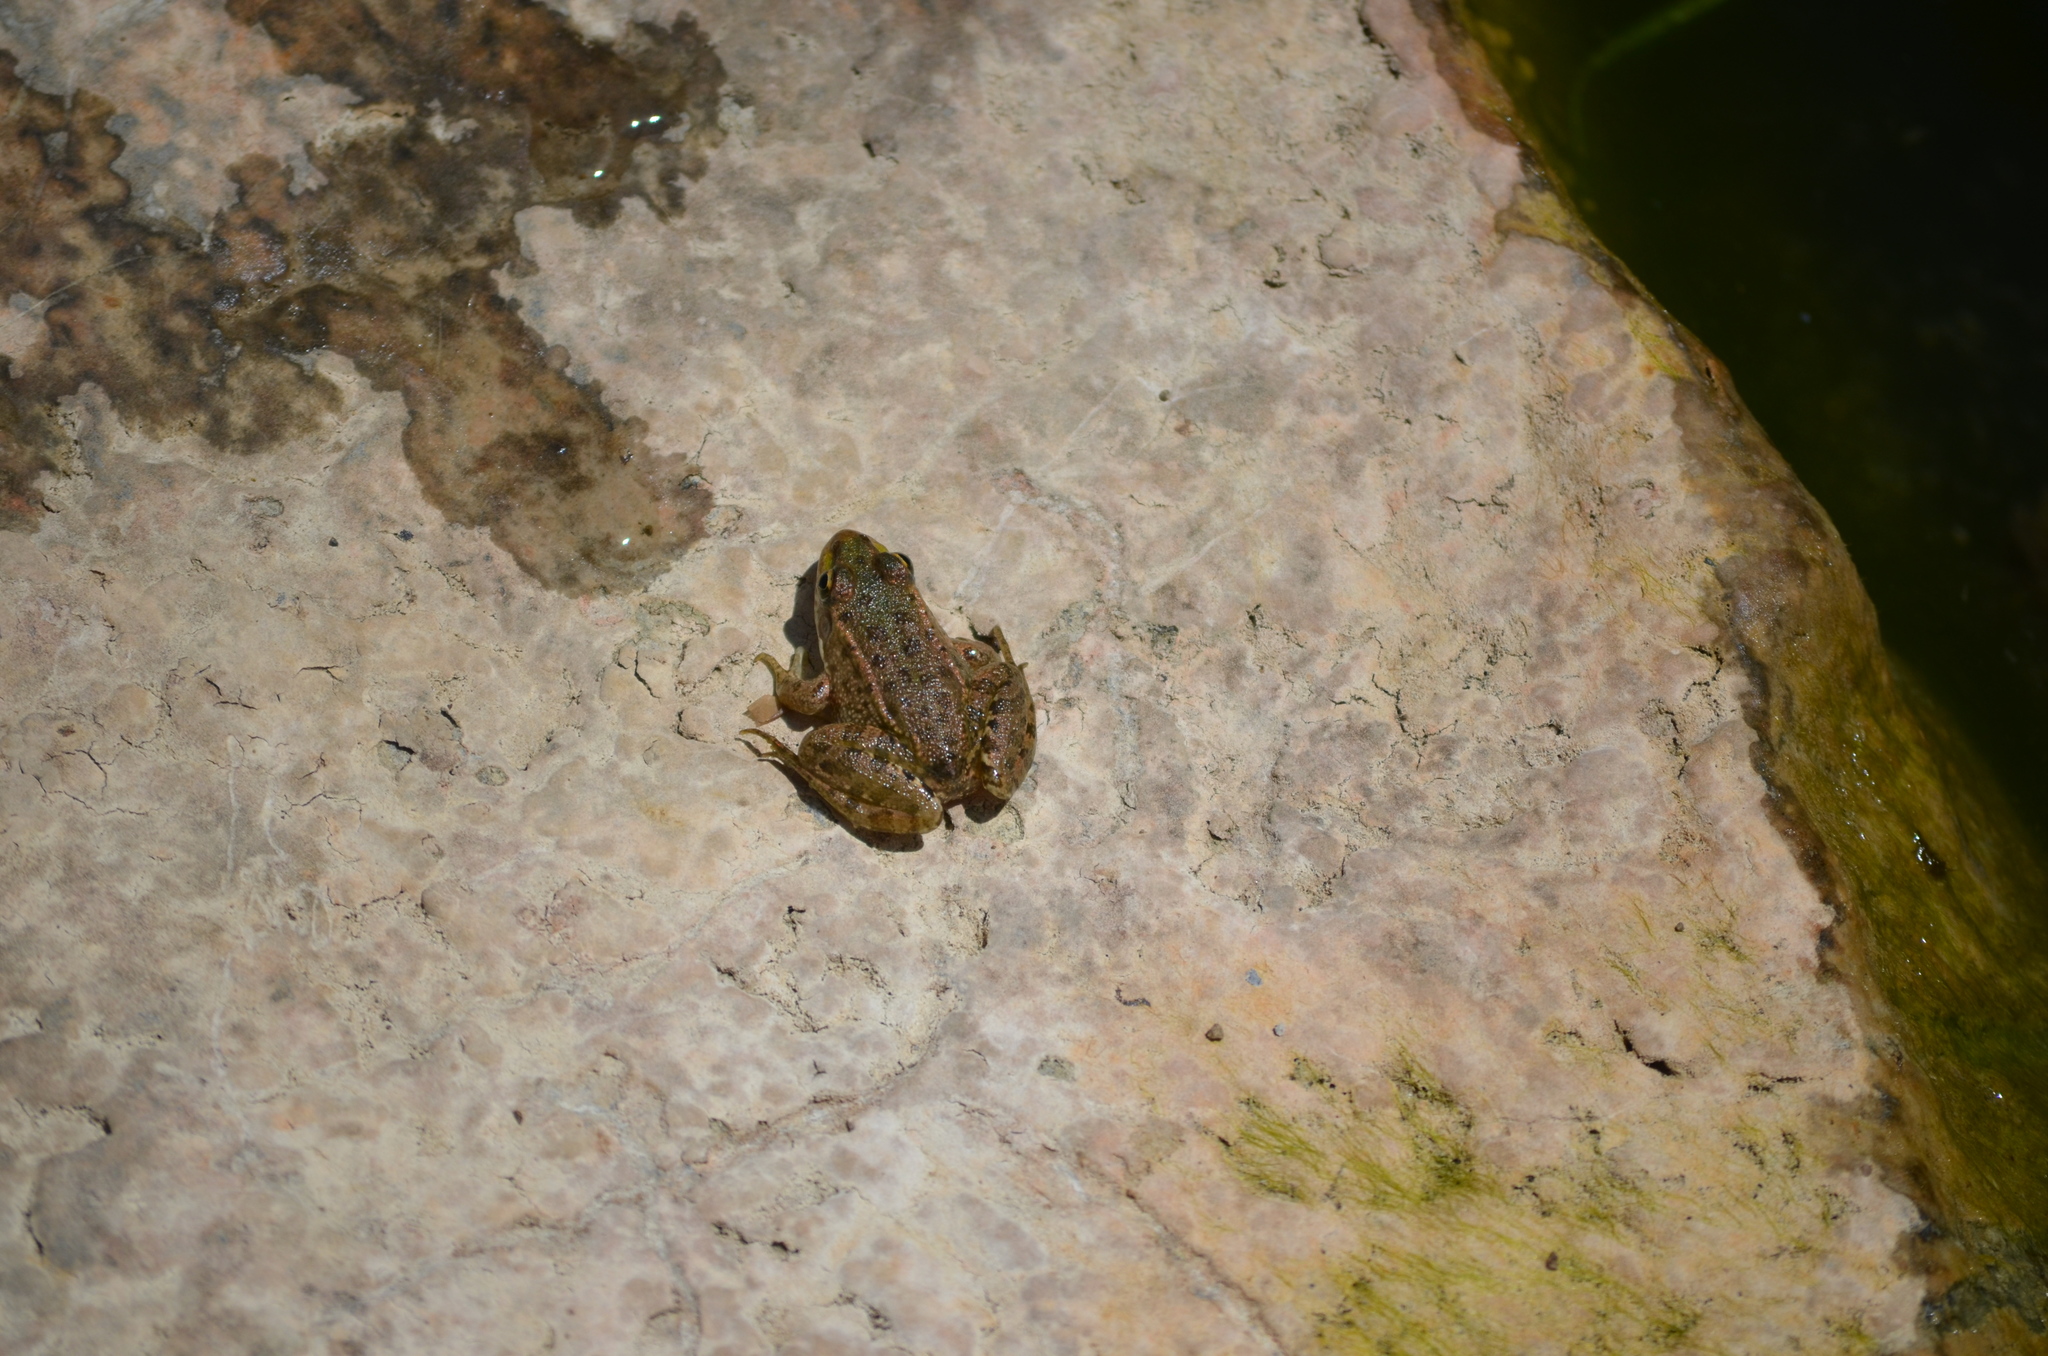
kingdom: Animalia
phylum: Chordata
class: Amphibia
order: Anura
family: Ranidae
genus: Pelophylax
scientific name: Pelophylax perezi
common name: Perez's frog
